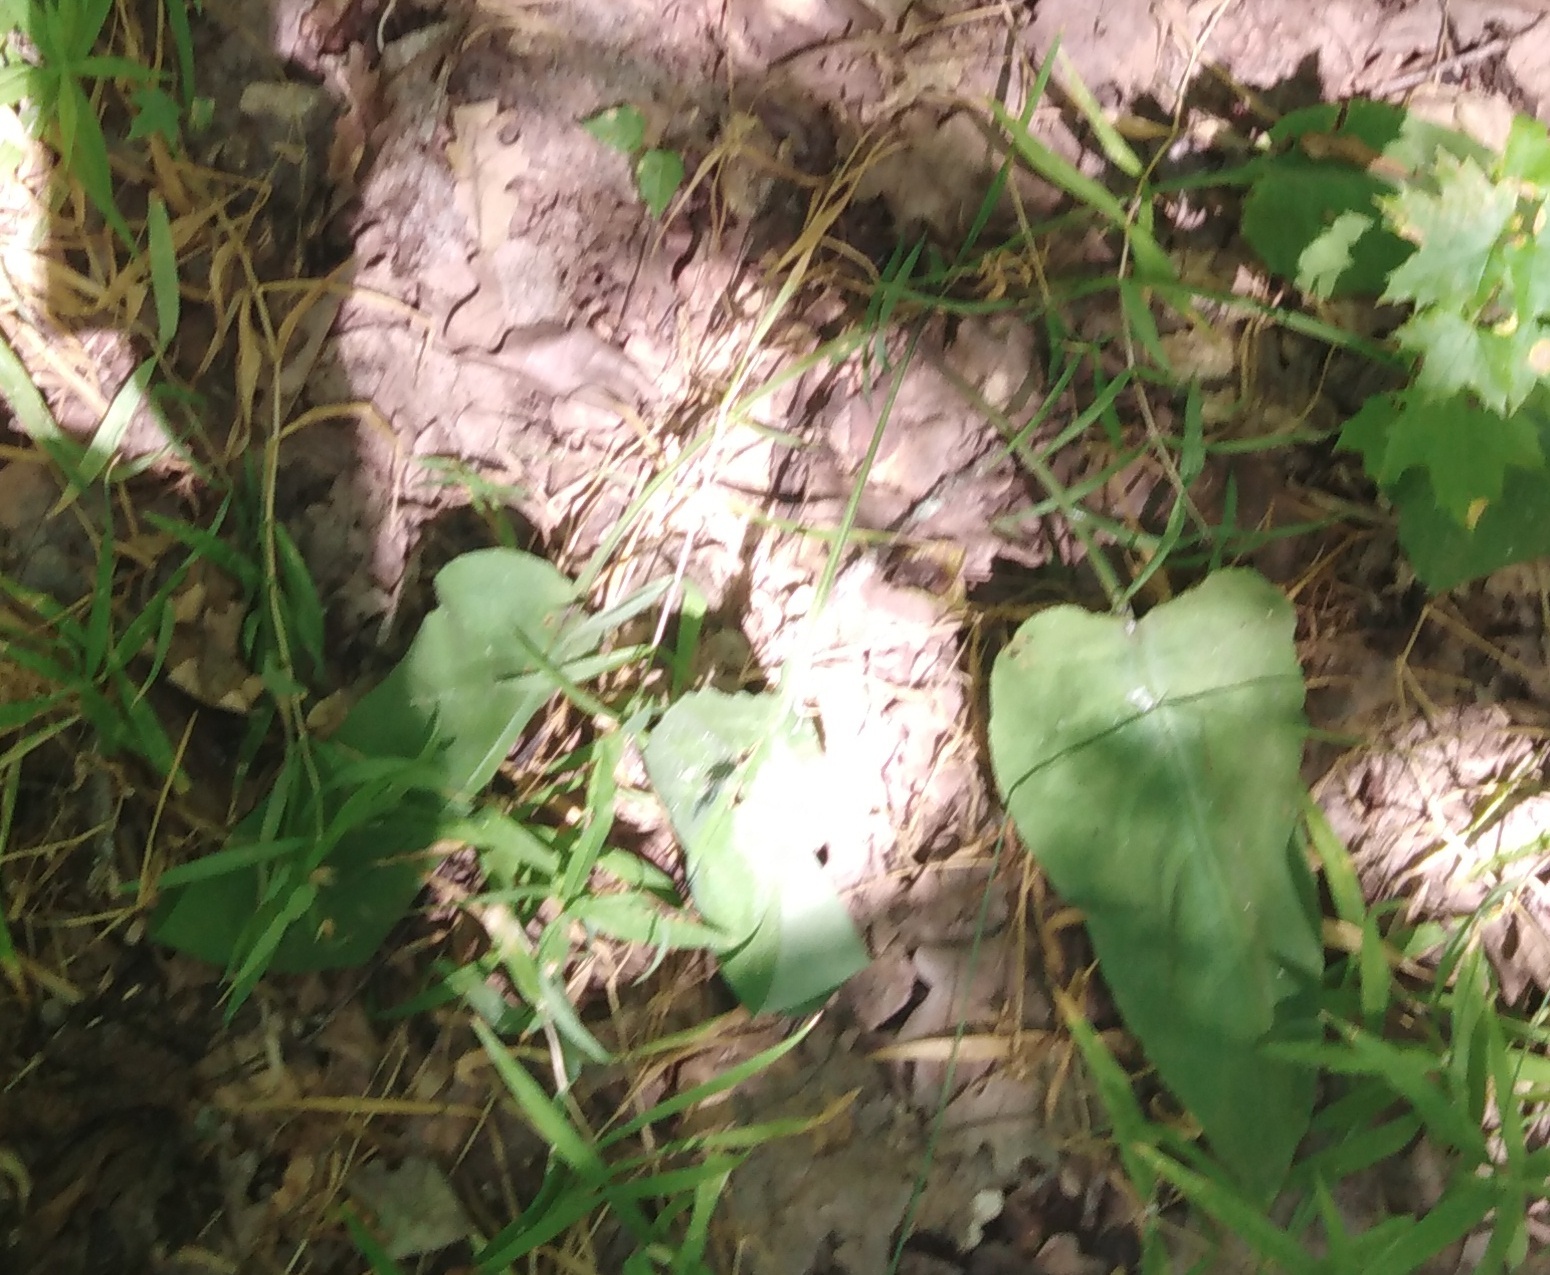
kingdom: Plantae
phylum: Tracheophyta
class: Magnoliopsida
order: Boraginales
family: Boraginaceae
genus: Pulmonaria
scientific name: Pulmonaria obscura
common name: Suffolk lungwort
